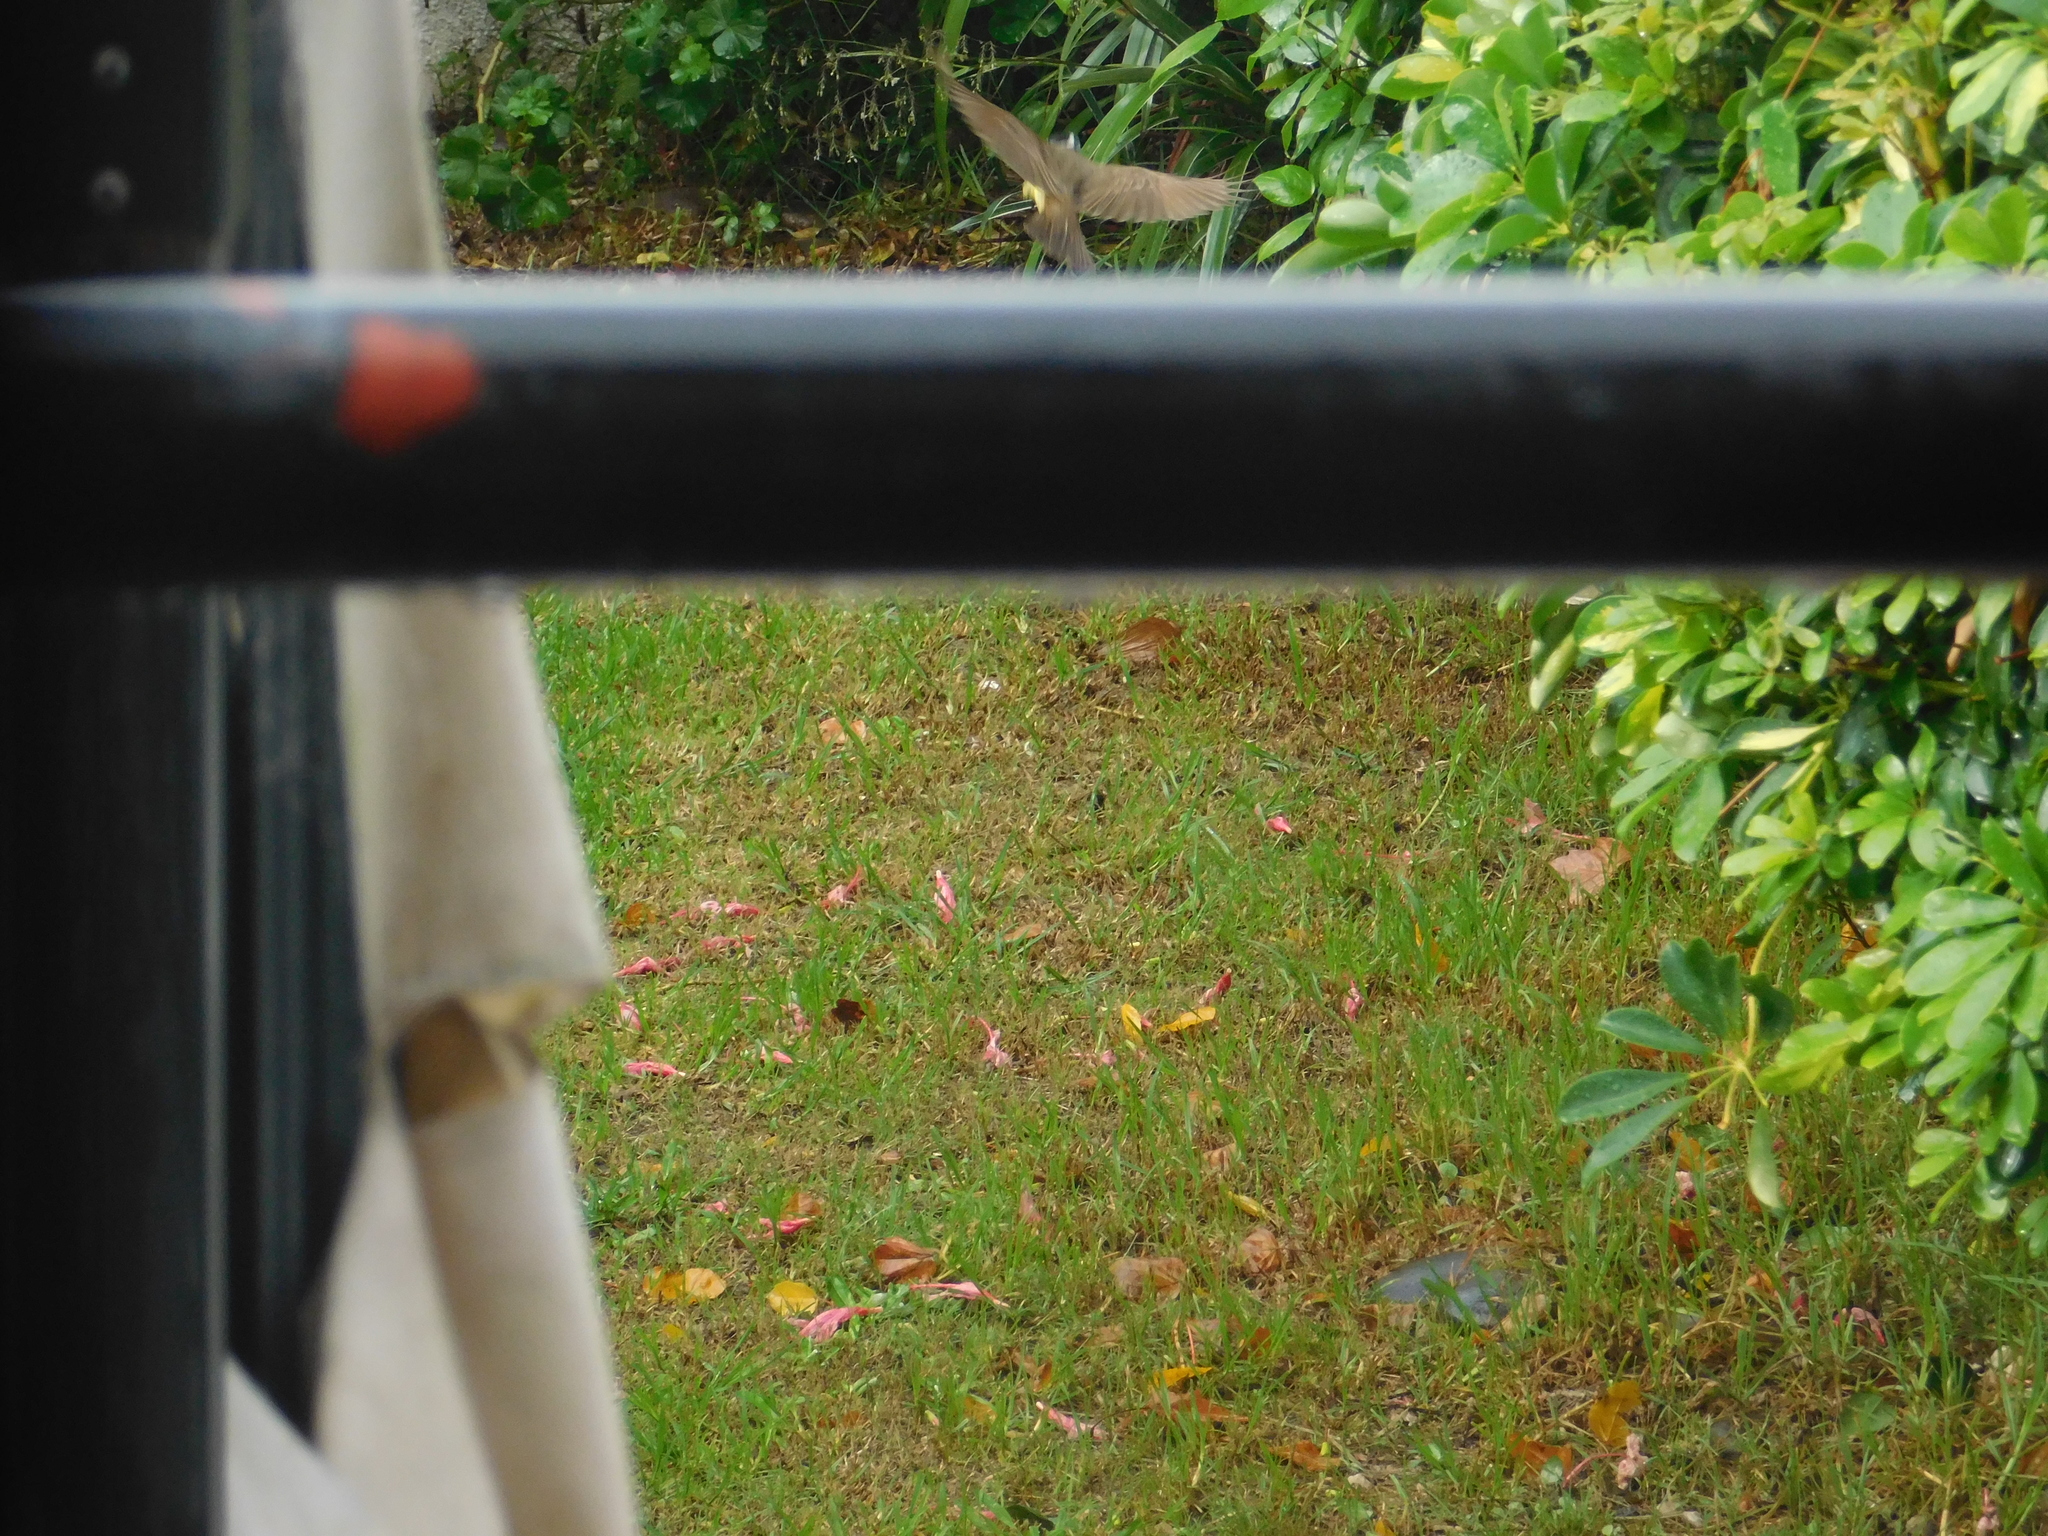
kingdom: Animalia
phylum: Chordata
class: Aves
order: Passeriformes
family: Tyrannidae
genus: Pitangus
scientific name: Pitangus sulphuratus
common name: Great kiskadee
